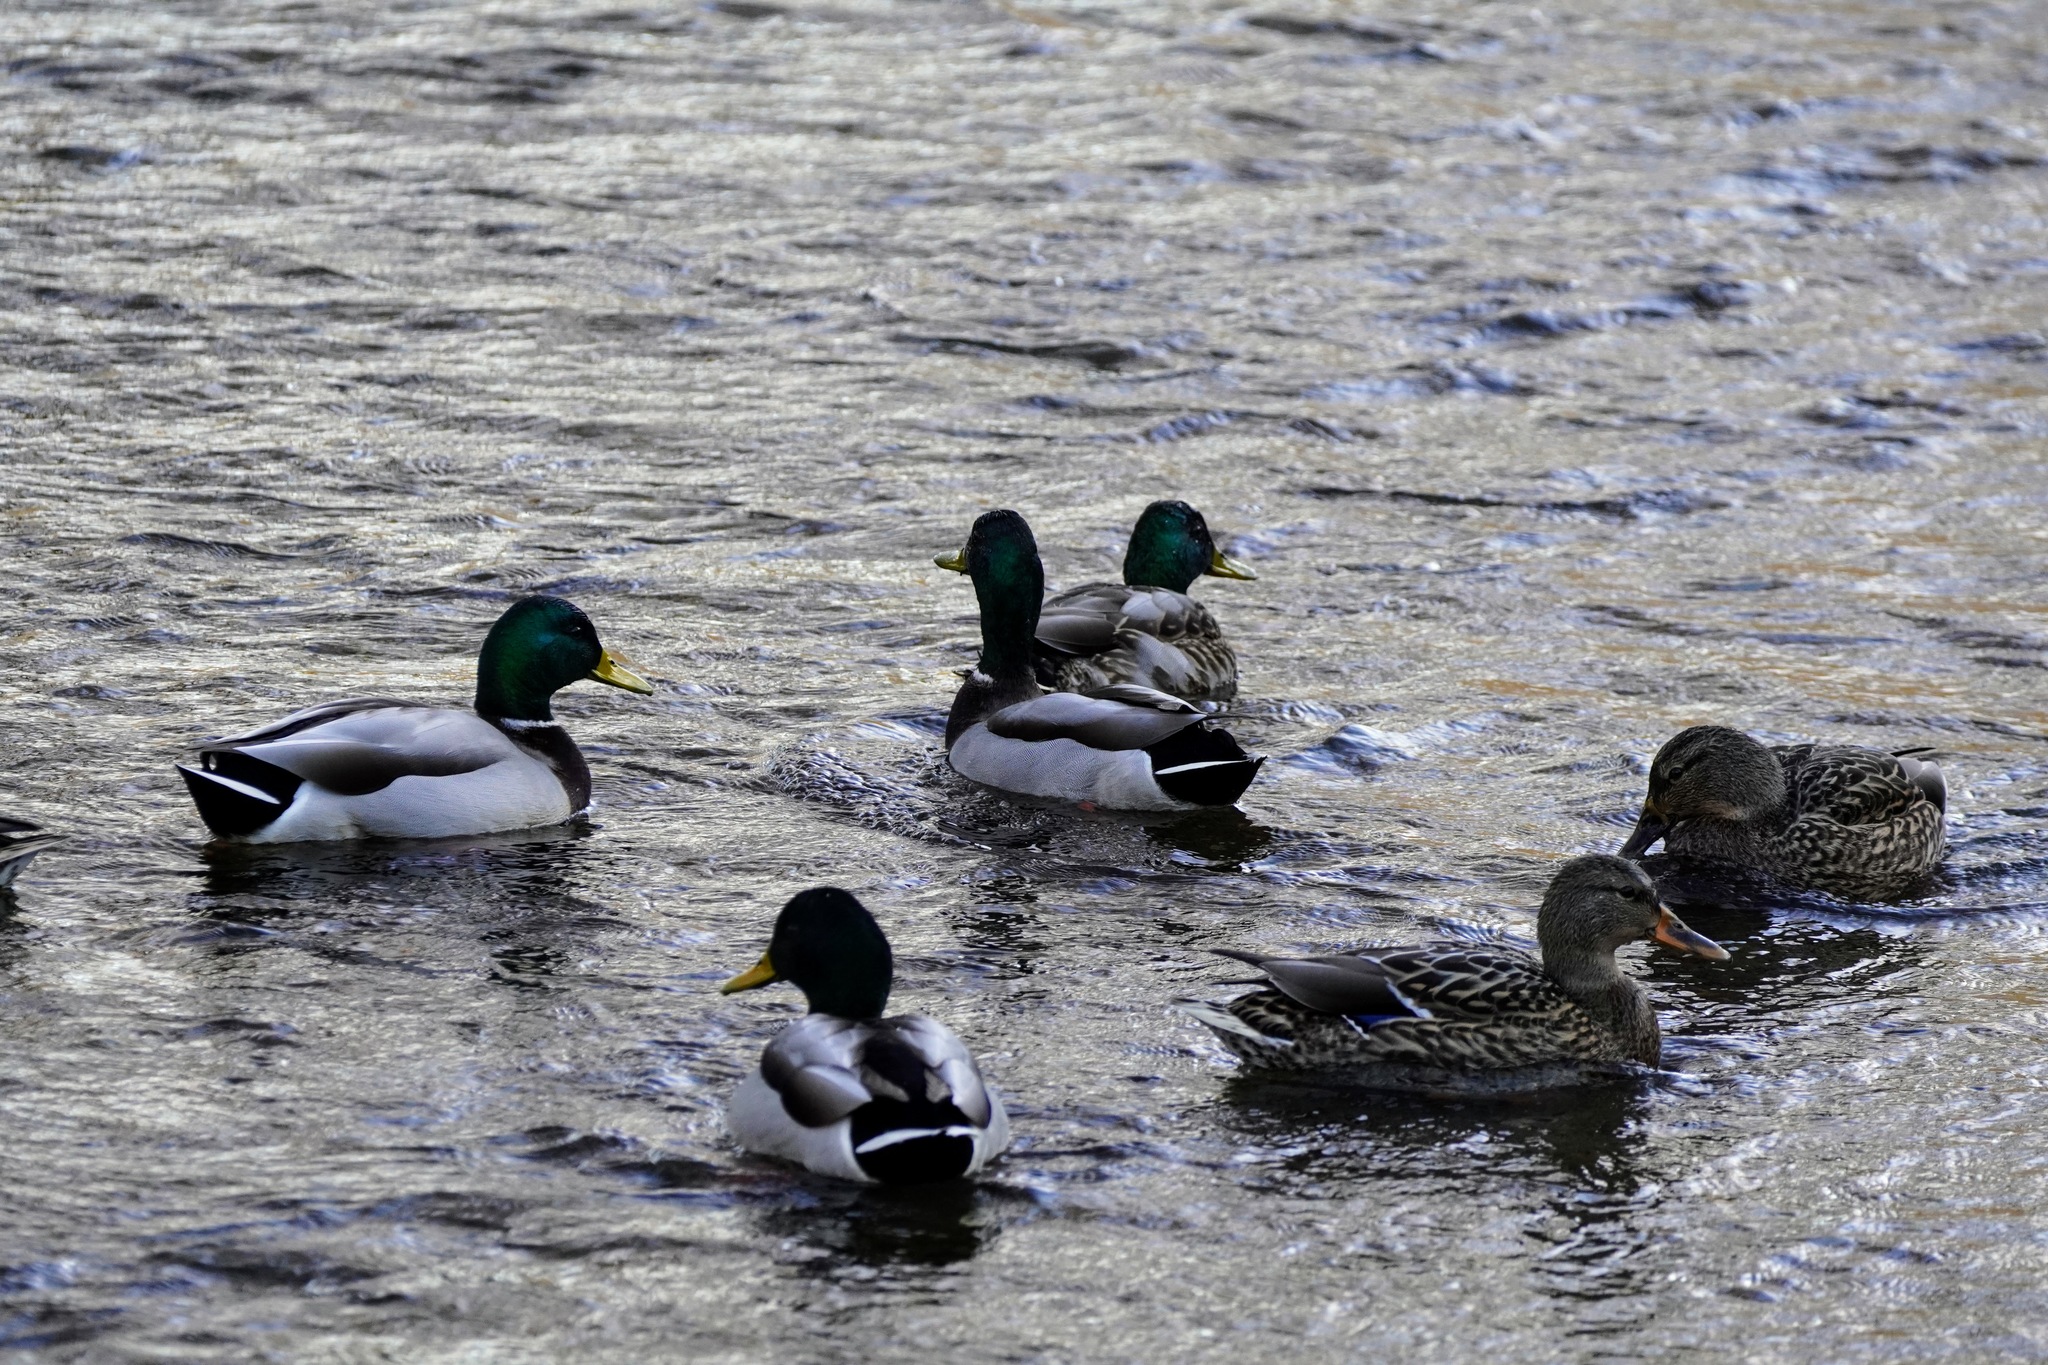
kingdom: Animalia
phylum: Chordata
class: Aves
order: Anseriformes
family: Anatidae
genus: Anas
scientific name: Anas platyrhynchos
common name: Mallard
